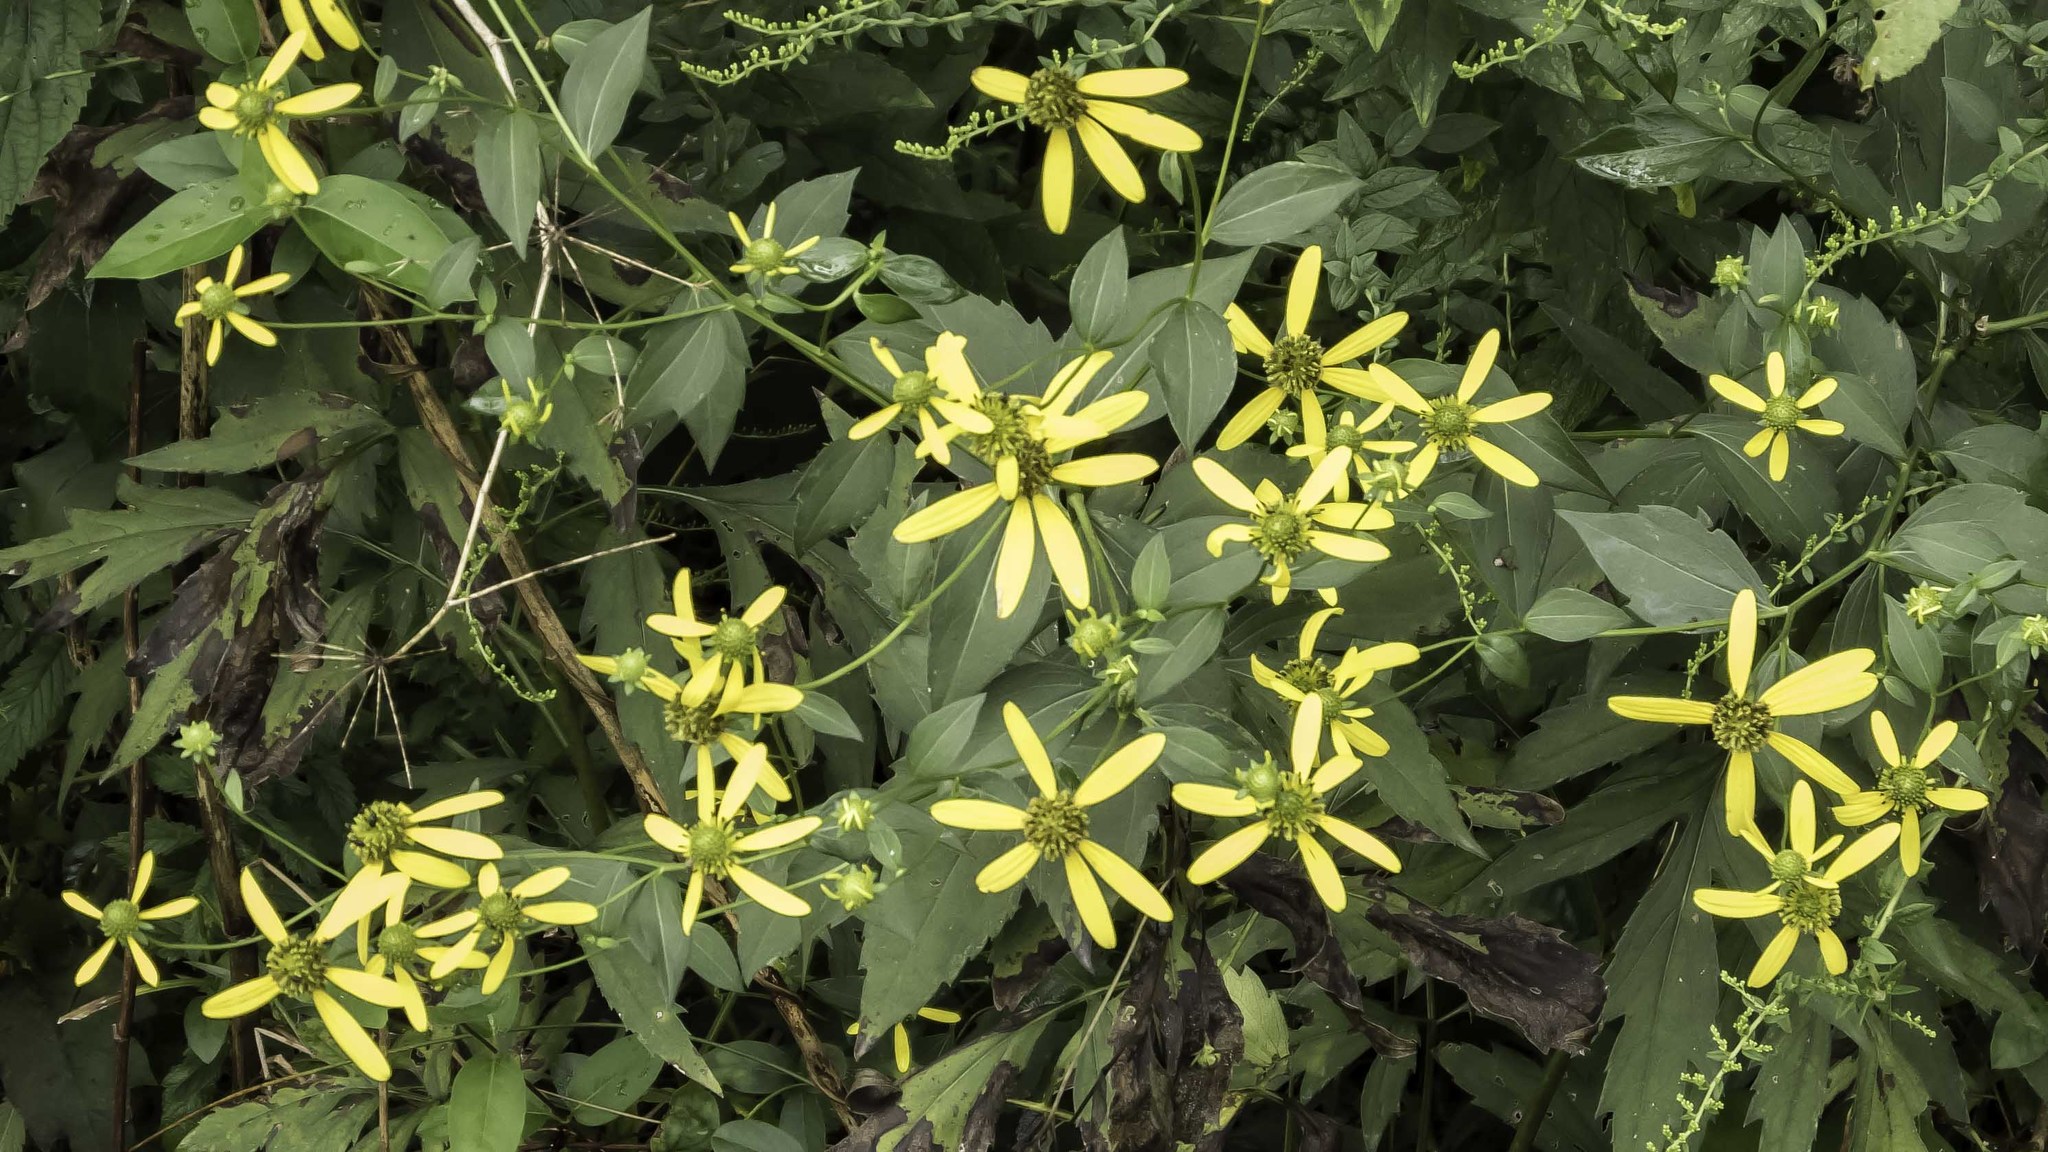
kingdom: Plantae
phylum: Tracheophyta
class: Magnoliopsida
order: Asterales
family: Asteraceae
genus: Rudbeckia
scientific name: Rudbeckia laciniata
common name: Coneflower
